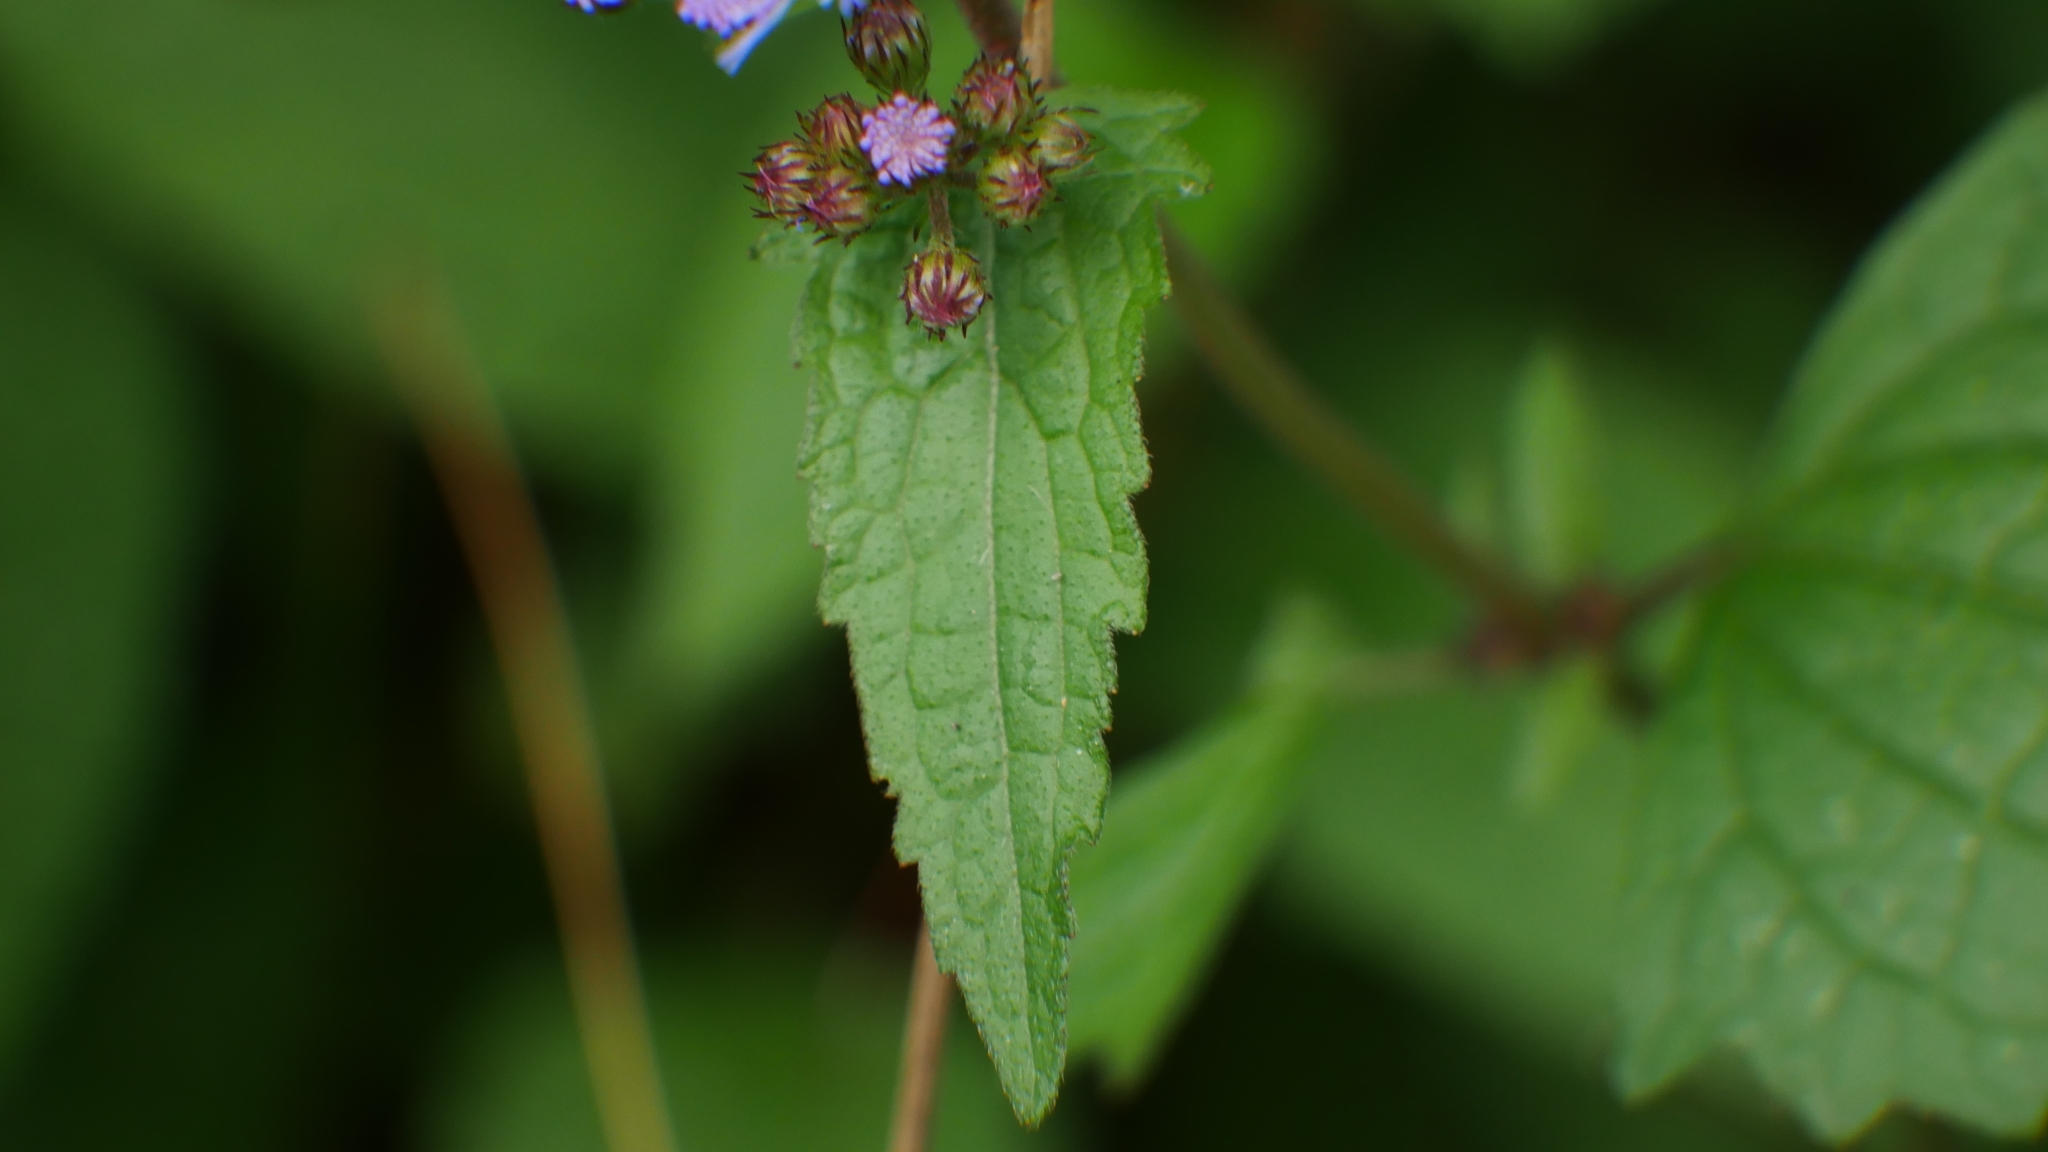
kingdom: Plantae
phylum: Tracheophyta
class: Magnoliopsida
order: Asterales
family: Asteraceae
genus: Conoclinium
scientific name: Conoclinium coelestinum
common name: Blue mistflower
